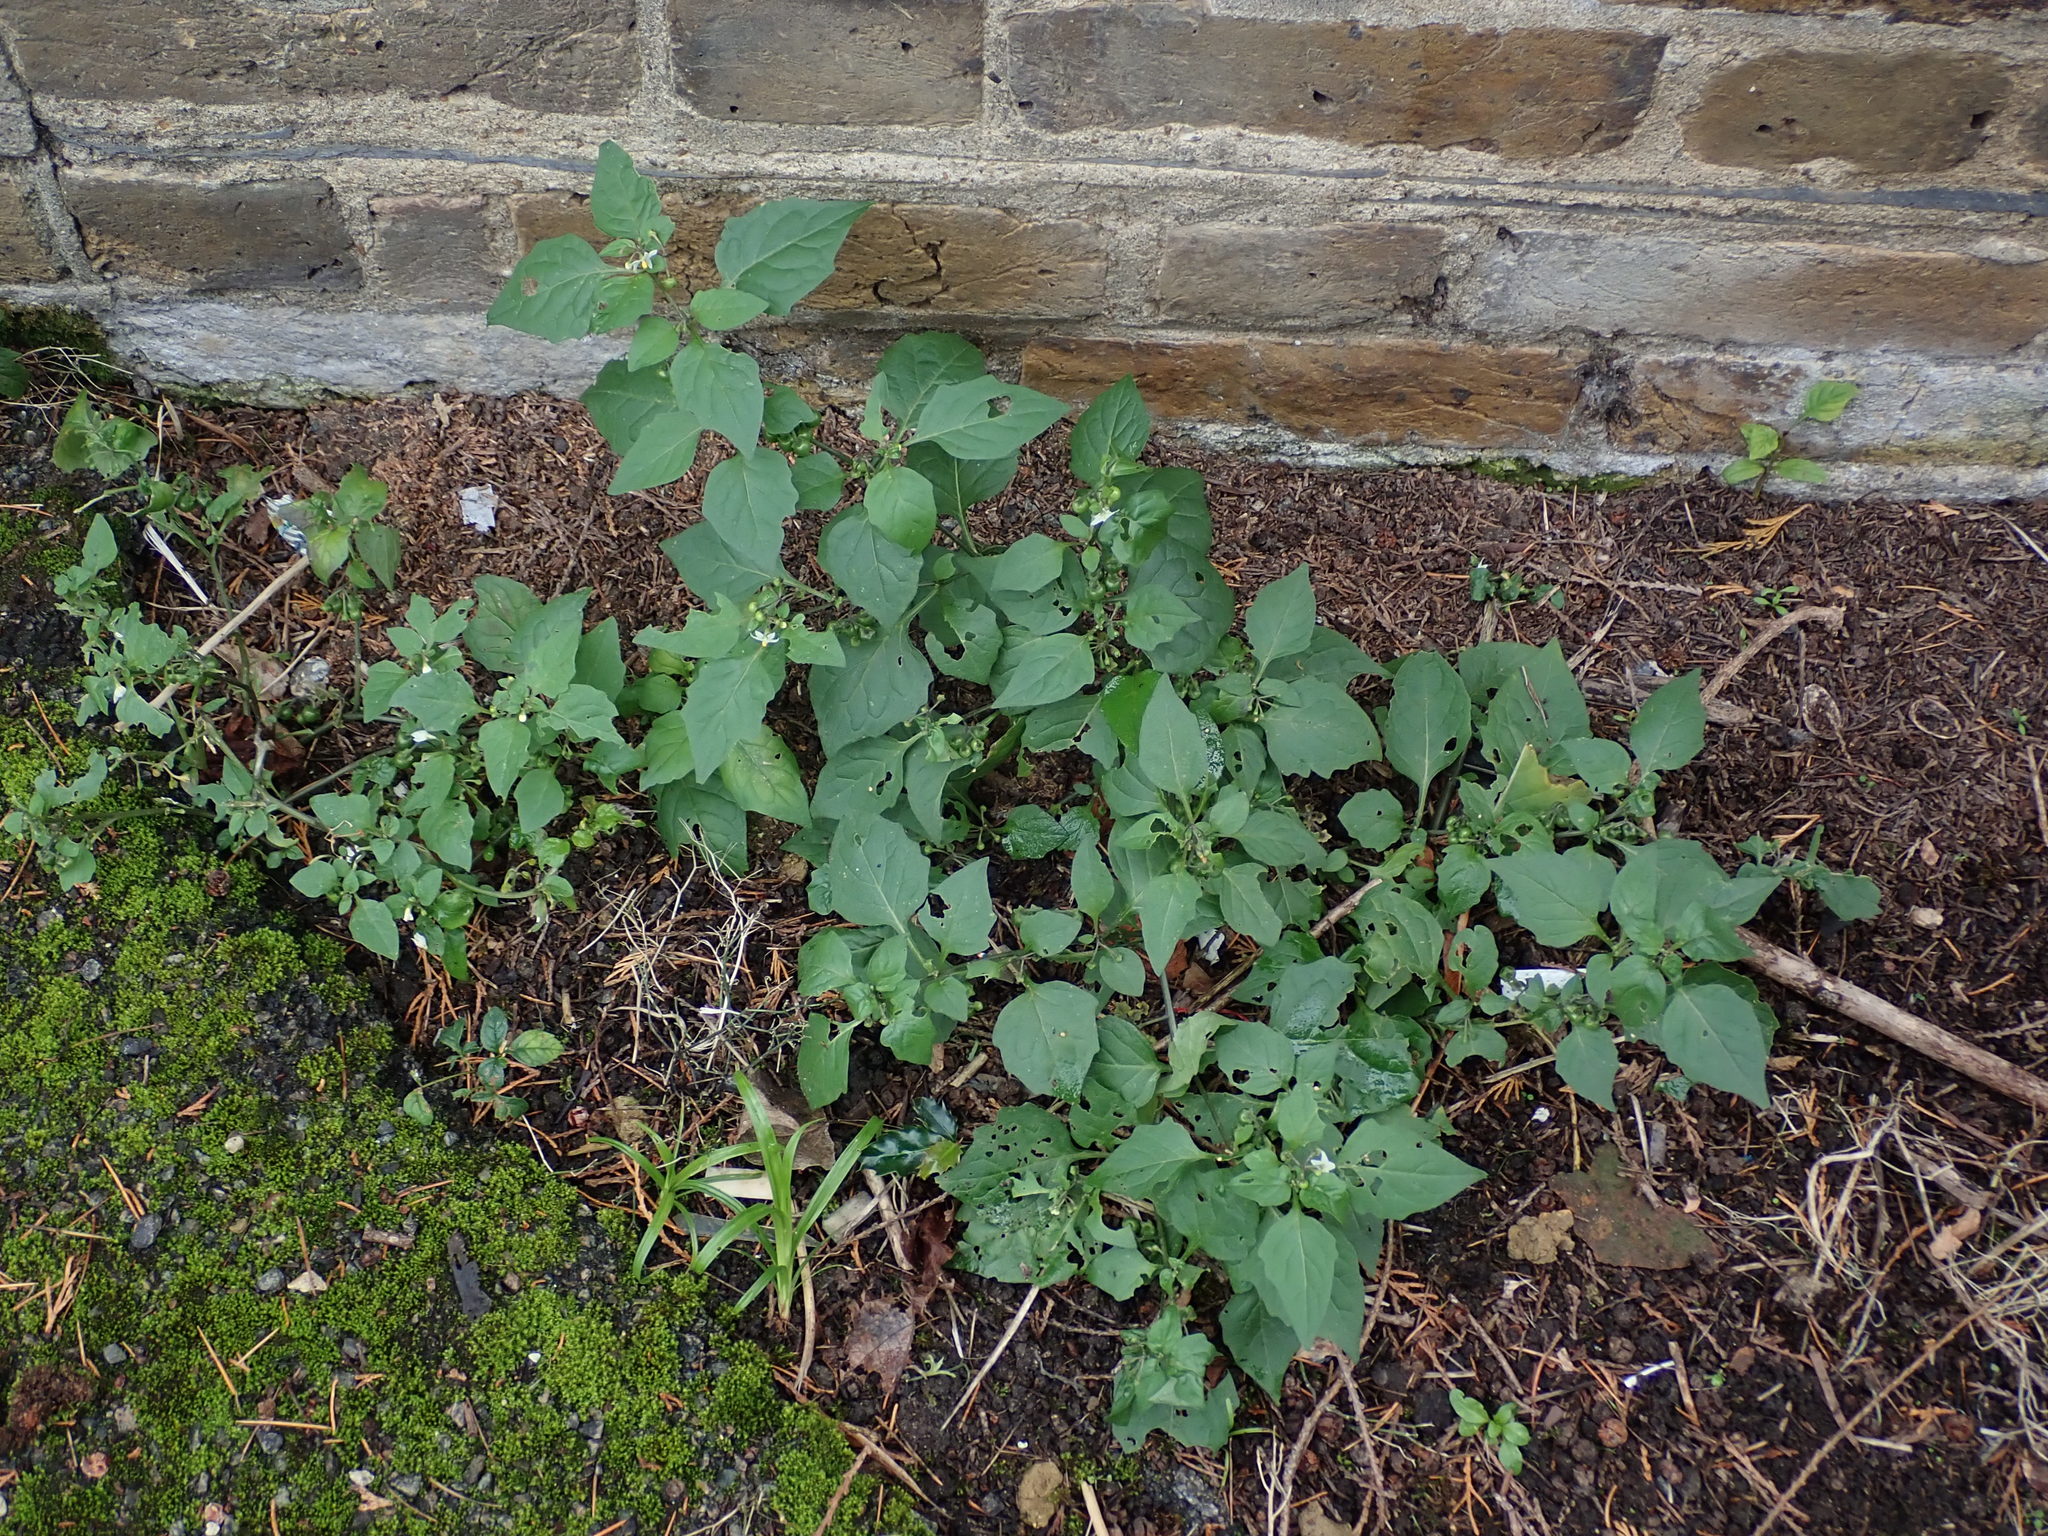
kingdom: Plantae
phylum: Tracheophyta
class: Magnoliopsida
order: Solanales
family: Solanaceae
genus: Solanum
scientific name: Solanum nigrum
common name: Black nightshade
